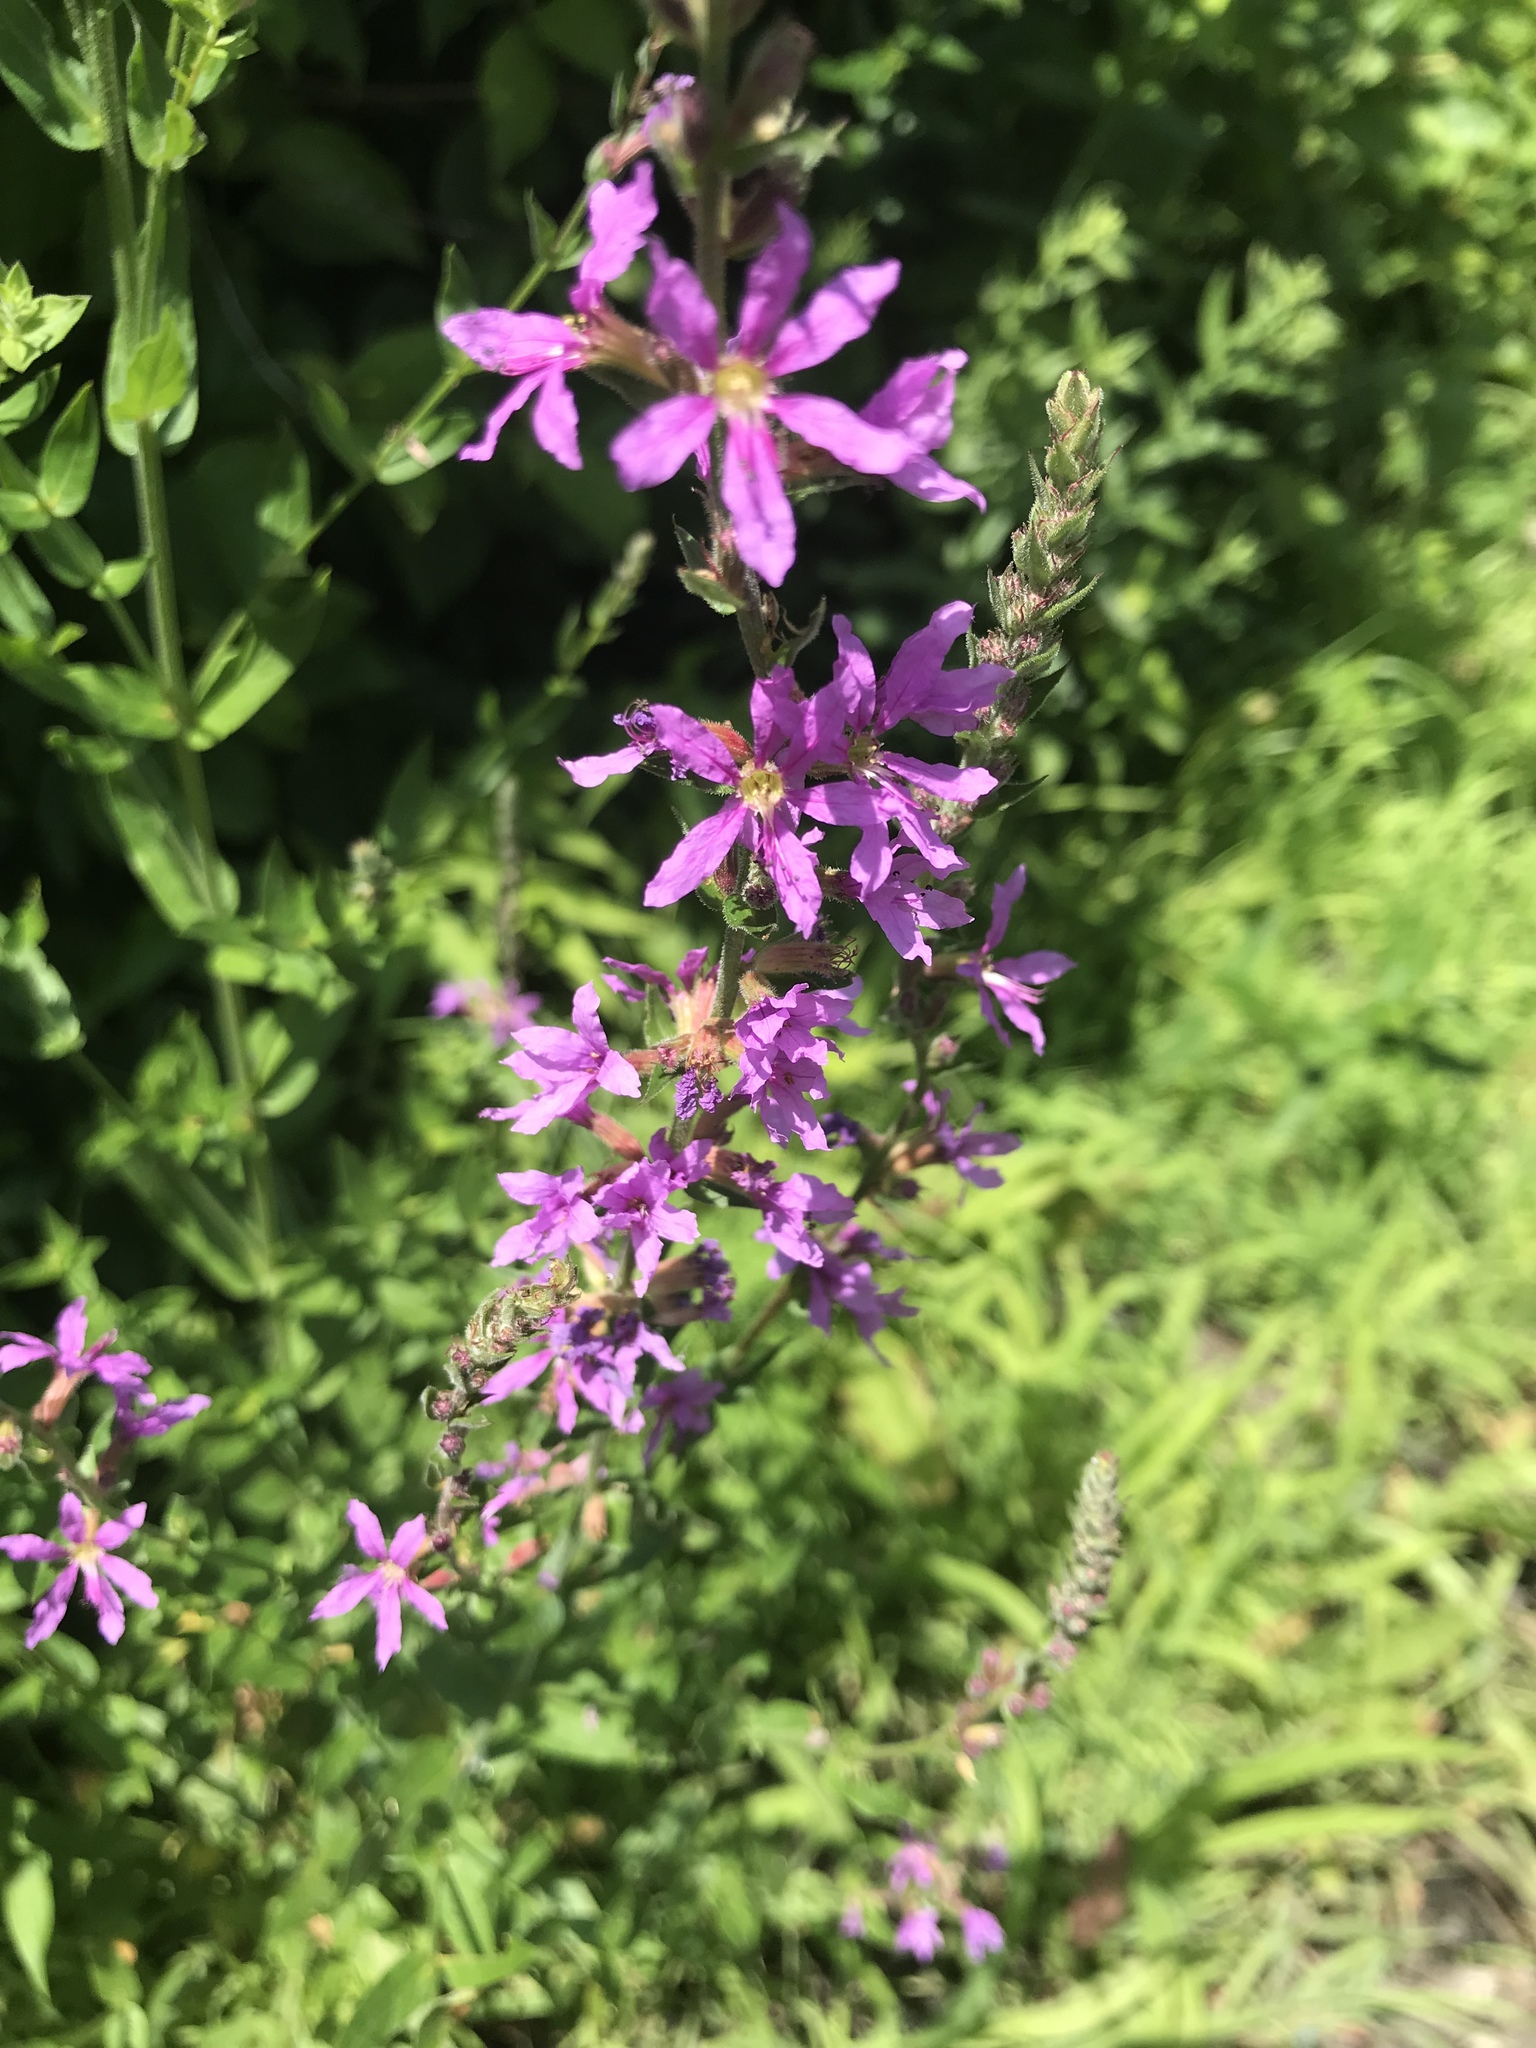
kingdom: Plantae
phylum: Tracheophyta
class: Magnoliopsida
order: Myrtales
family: Lythraceae
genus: Lythrum
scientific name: Lythrum salicaria
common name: Purple loosestrife
